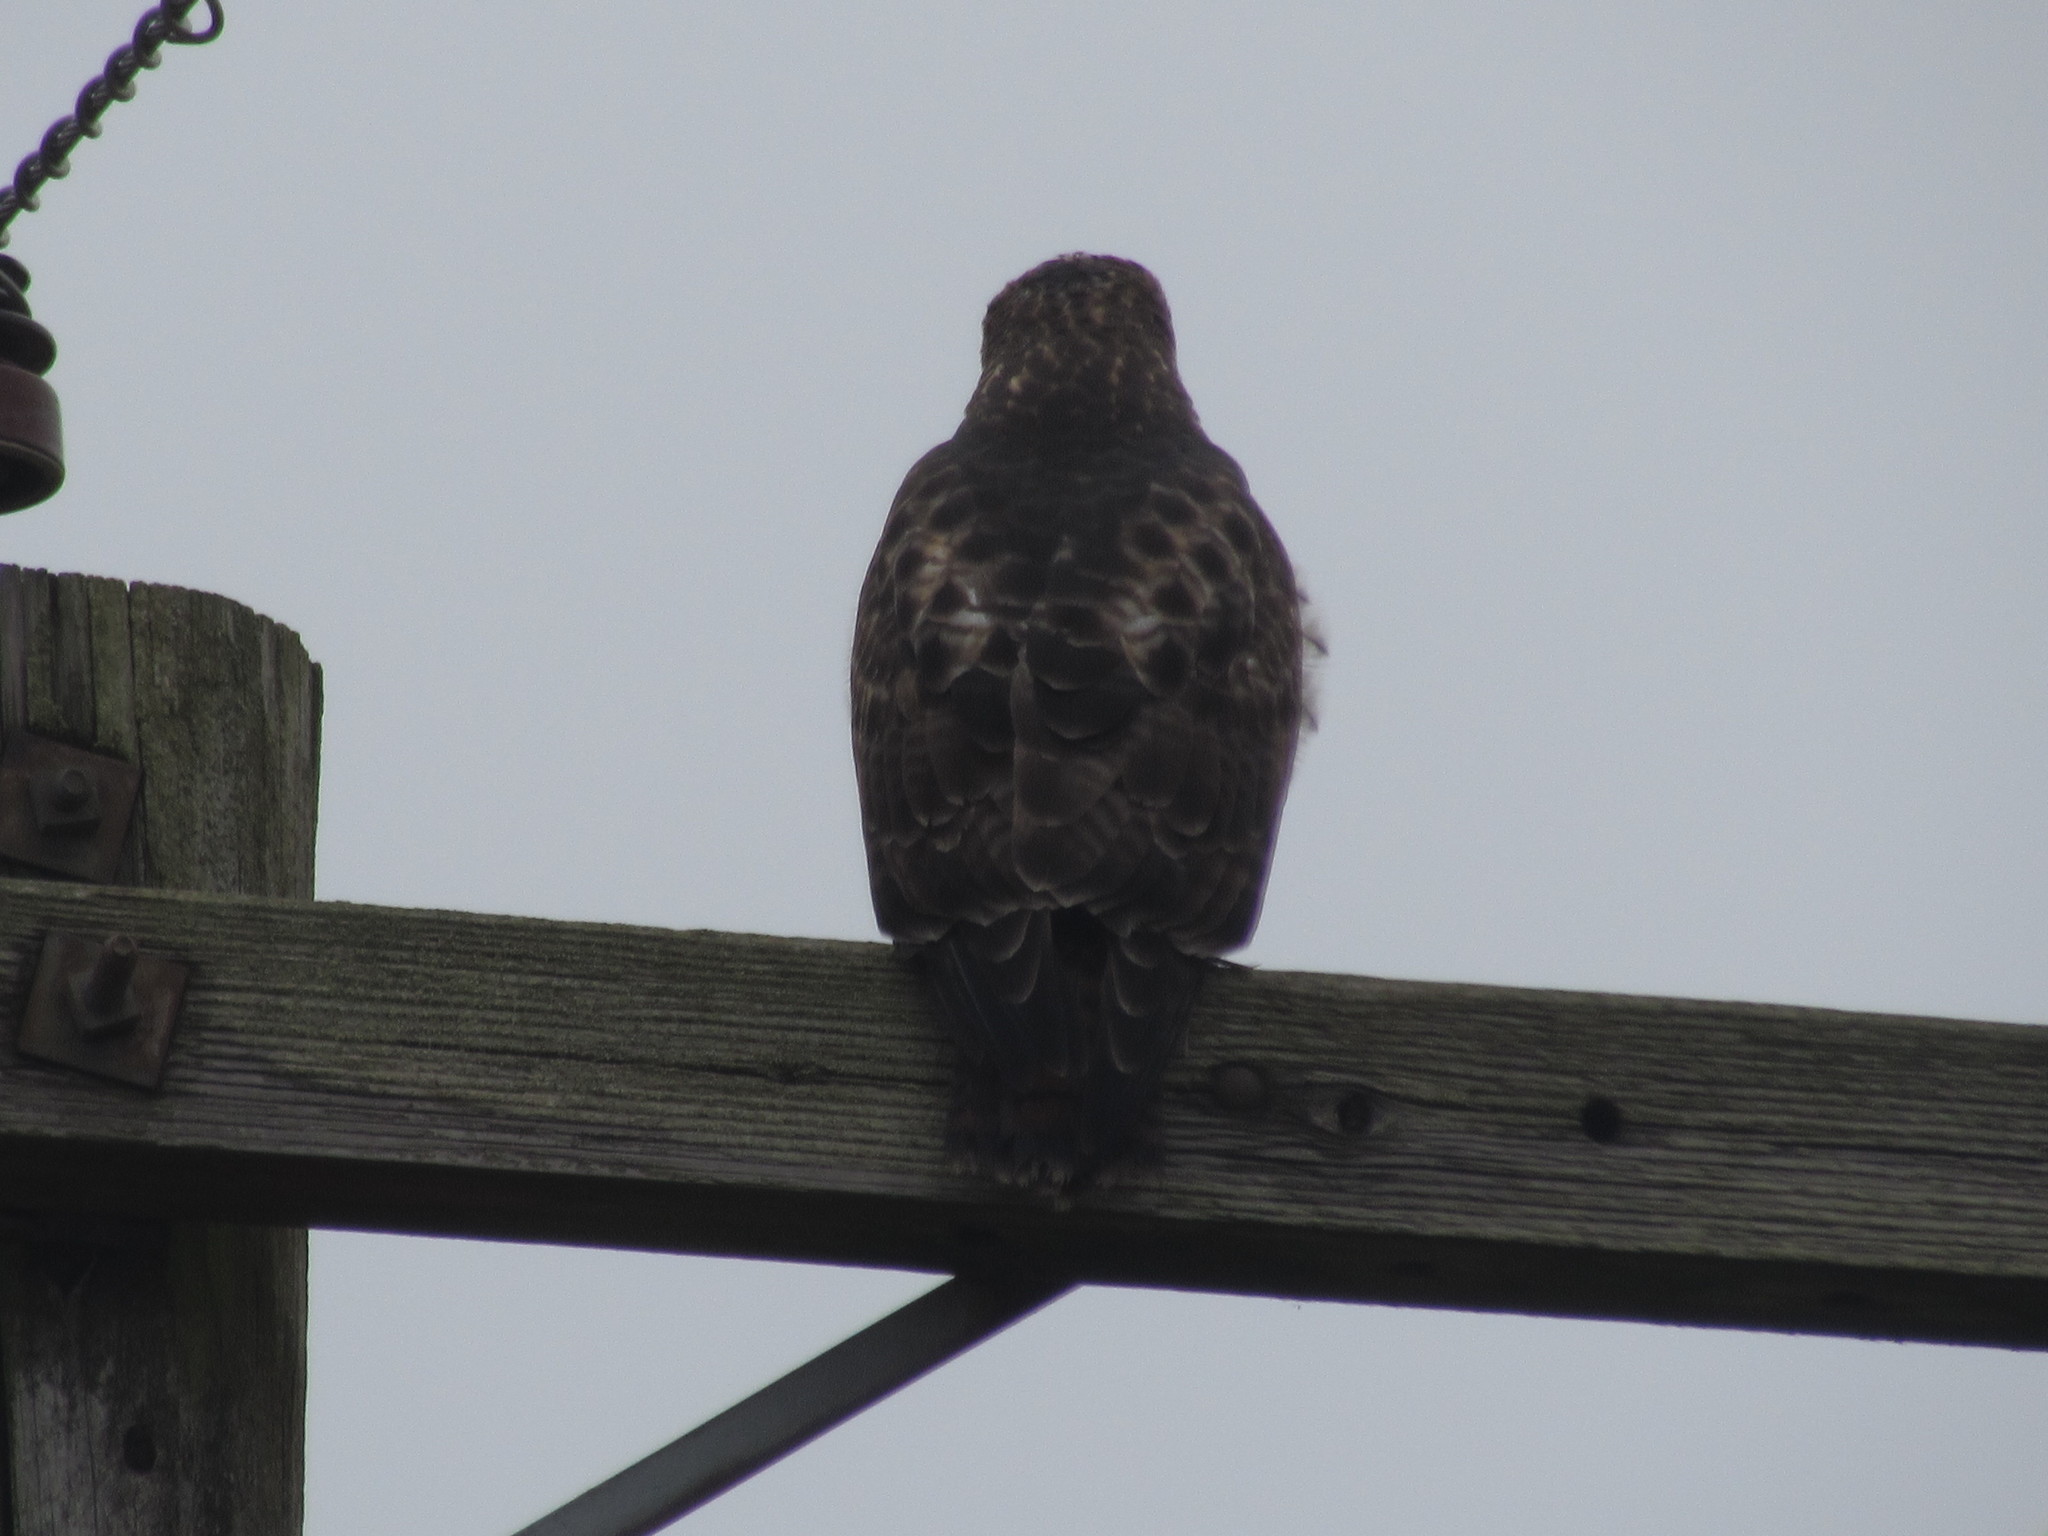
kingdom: Animalia
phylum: Chordata
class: Aves
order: Accipitriformes
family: Accipitridae
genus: Buteo
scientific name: Buteo jamaicensis
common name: Red-tailed hawk
